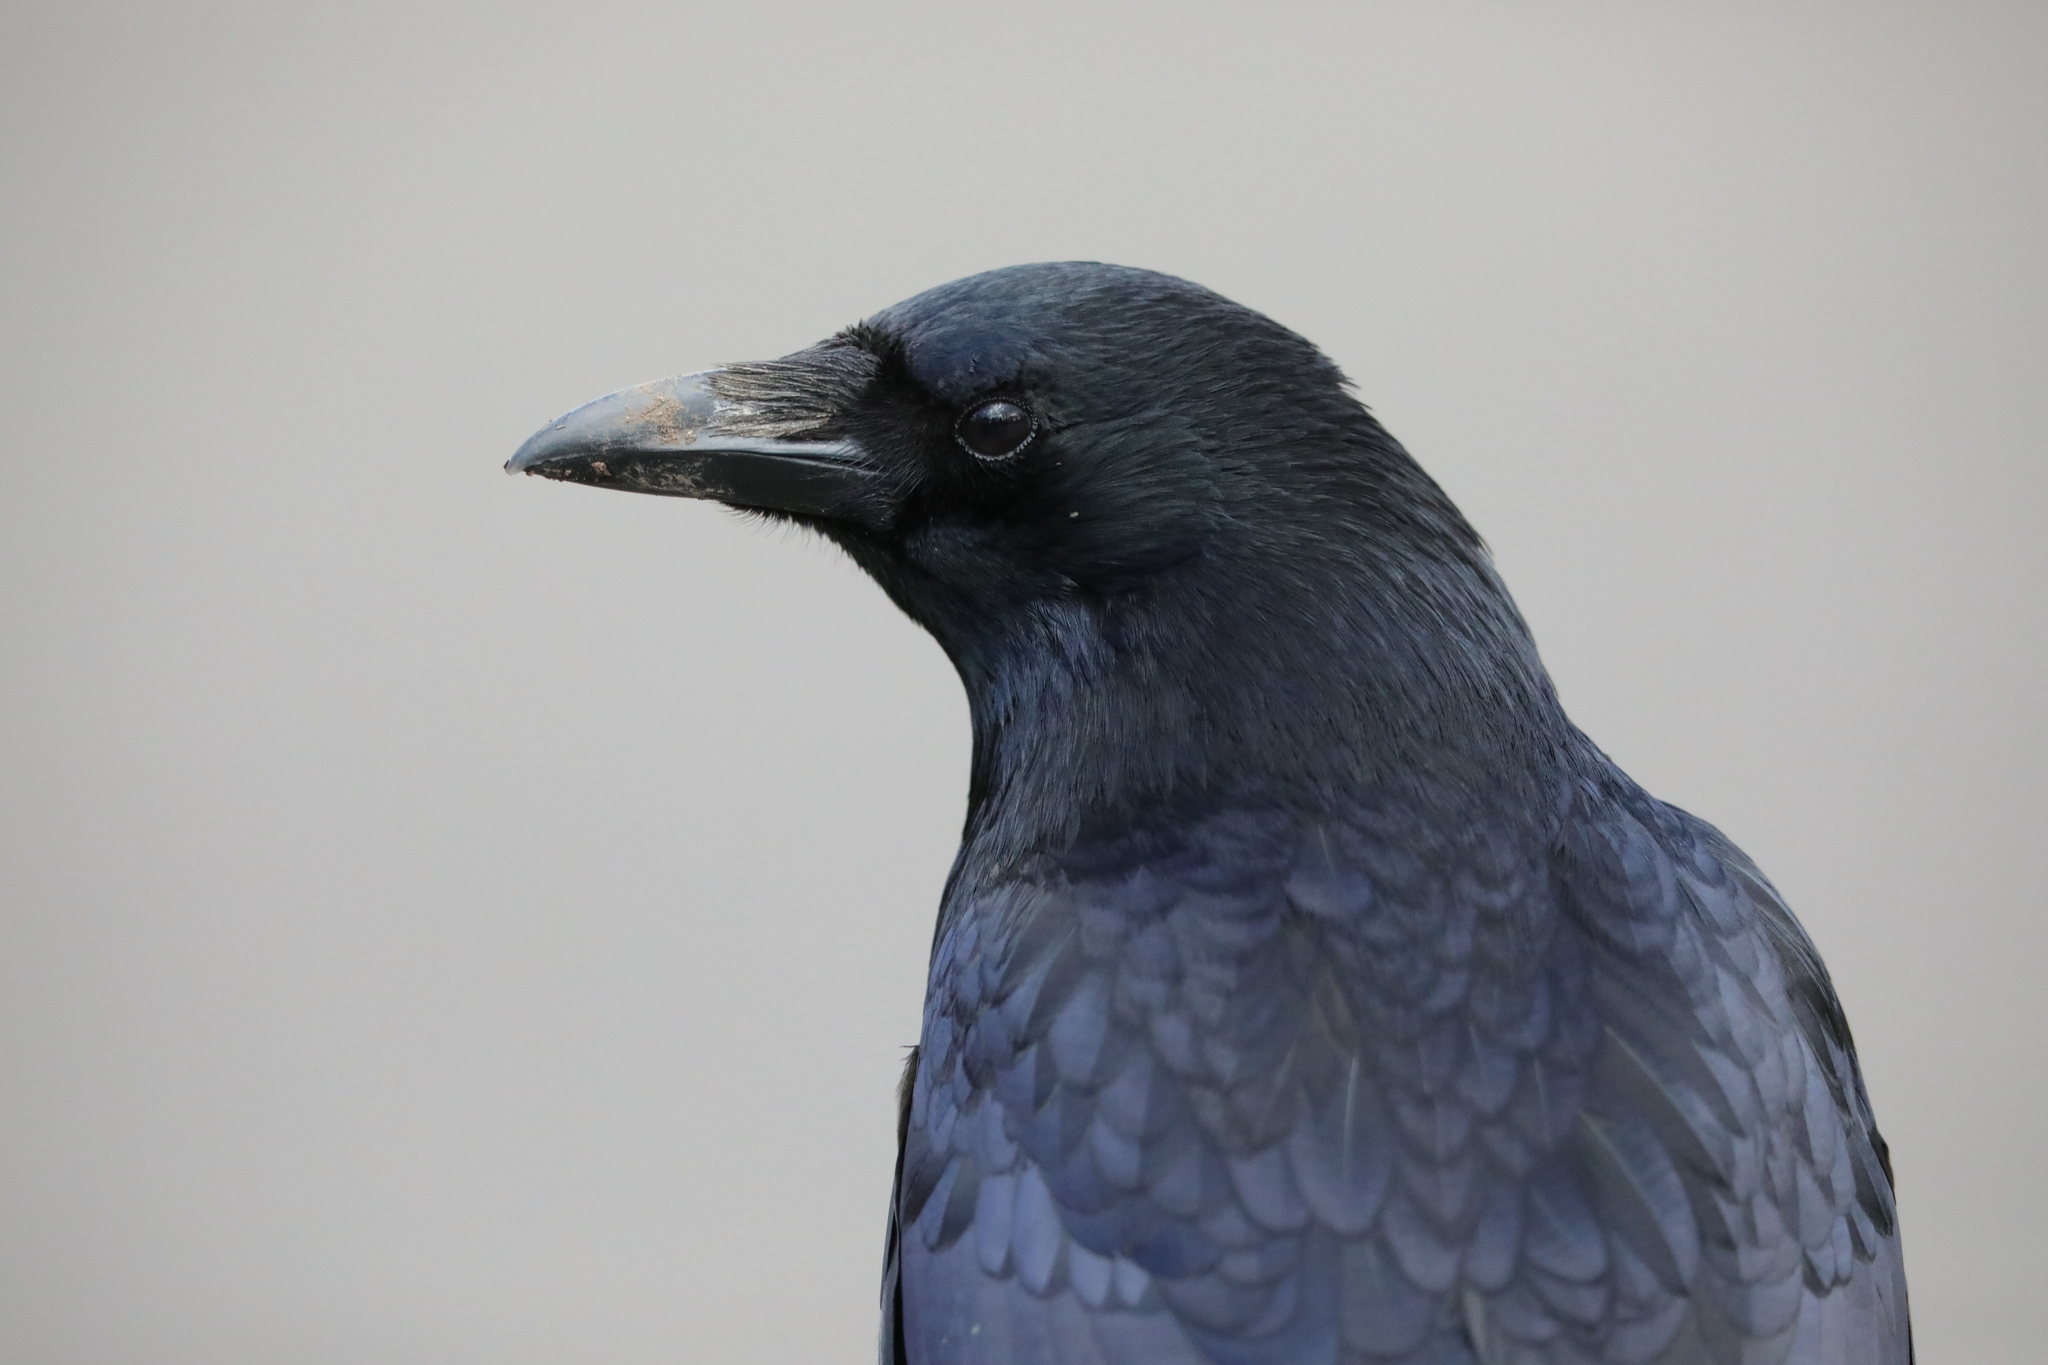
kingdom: Animalia
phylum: Chordata
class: Aves
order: Passeriformes
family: Corvidae
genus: Corvus
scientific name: Corvus corone
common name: Carrion crow
